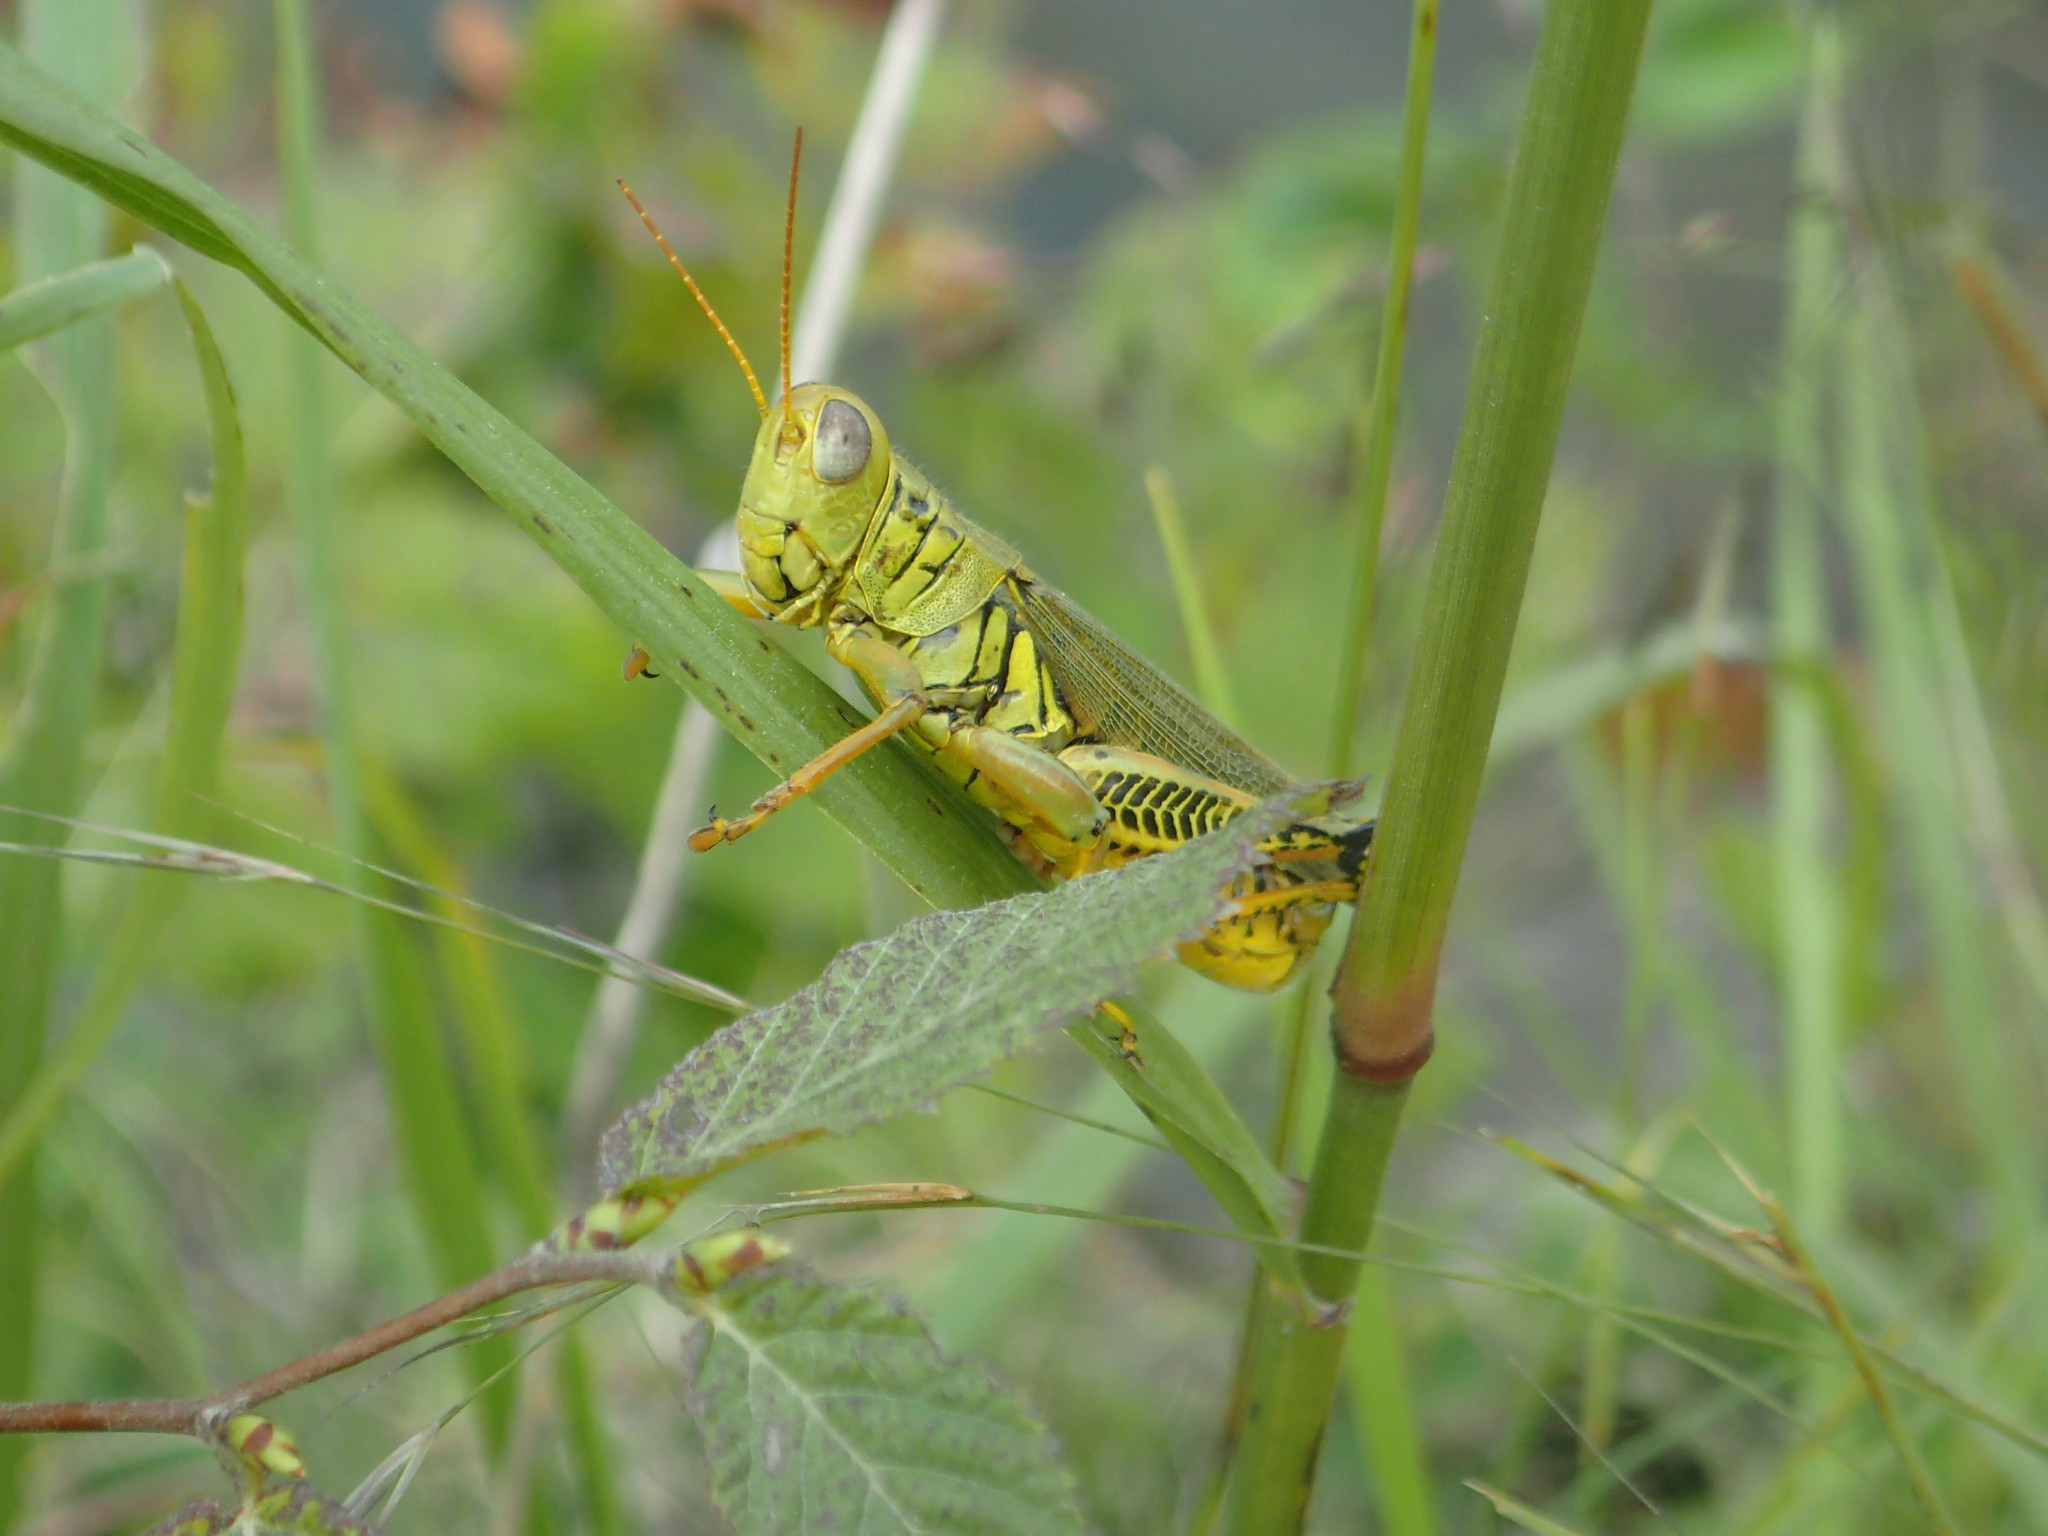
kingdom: Animalia
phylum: Arthropoda
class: Insecta
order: Orthoptera
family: Acrididae
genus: Melanoplus
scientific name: Melanoplus differentialis
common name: Differential grasshopper
